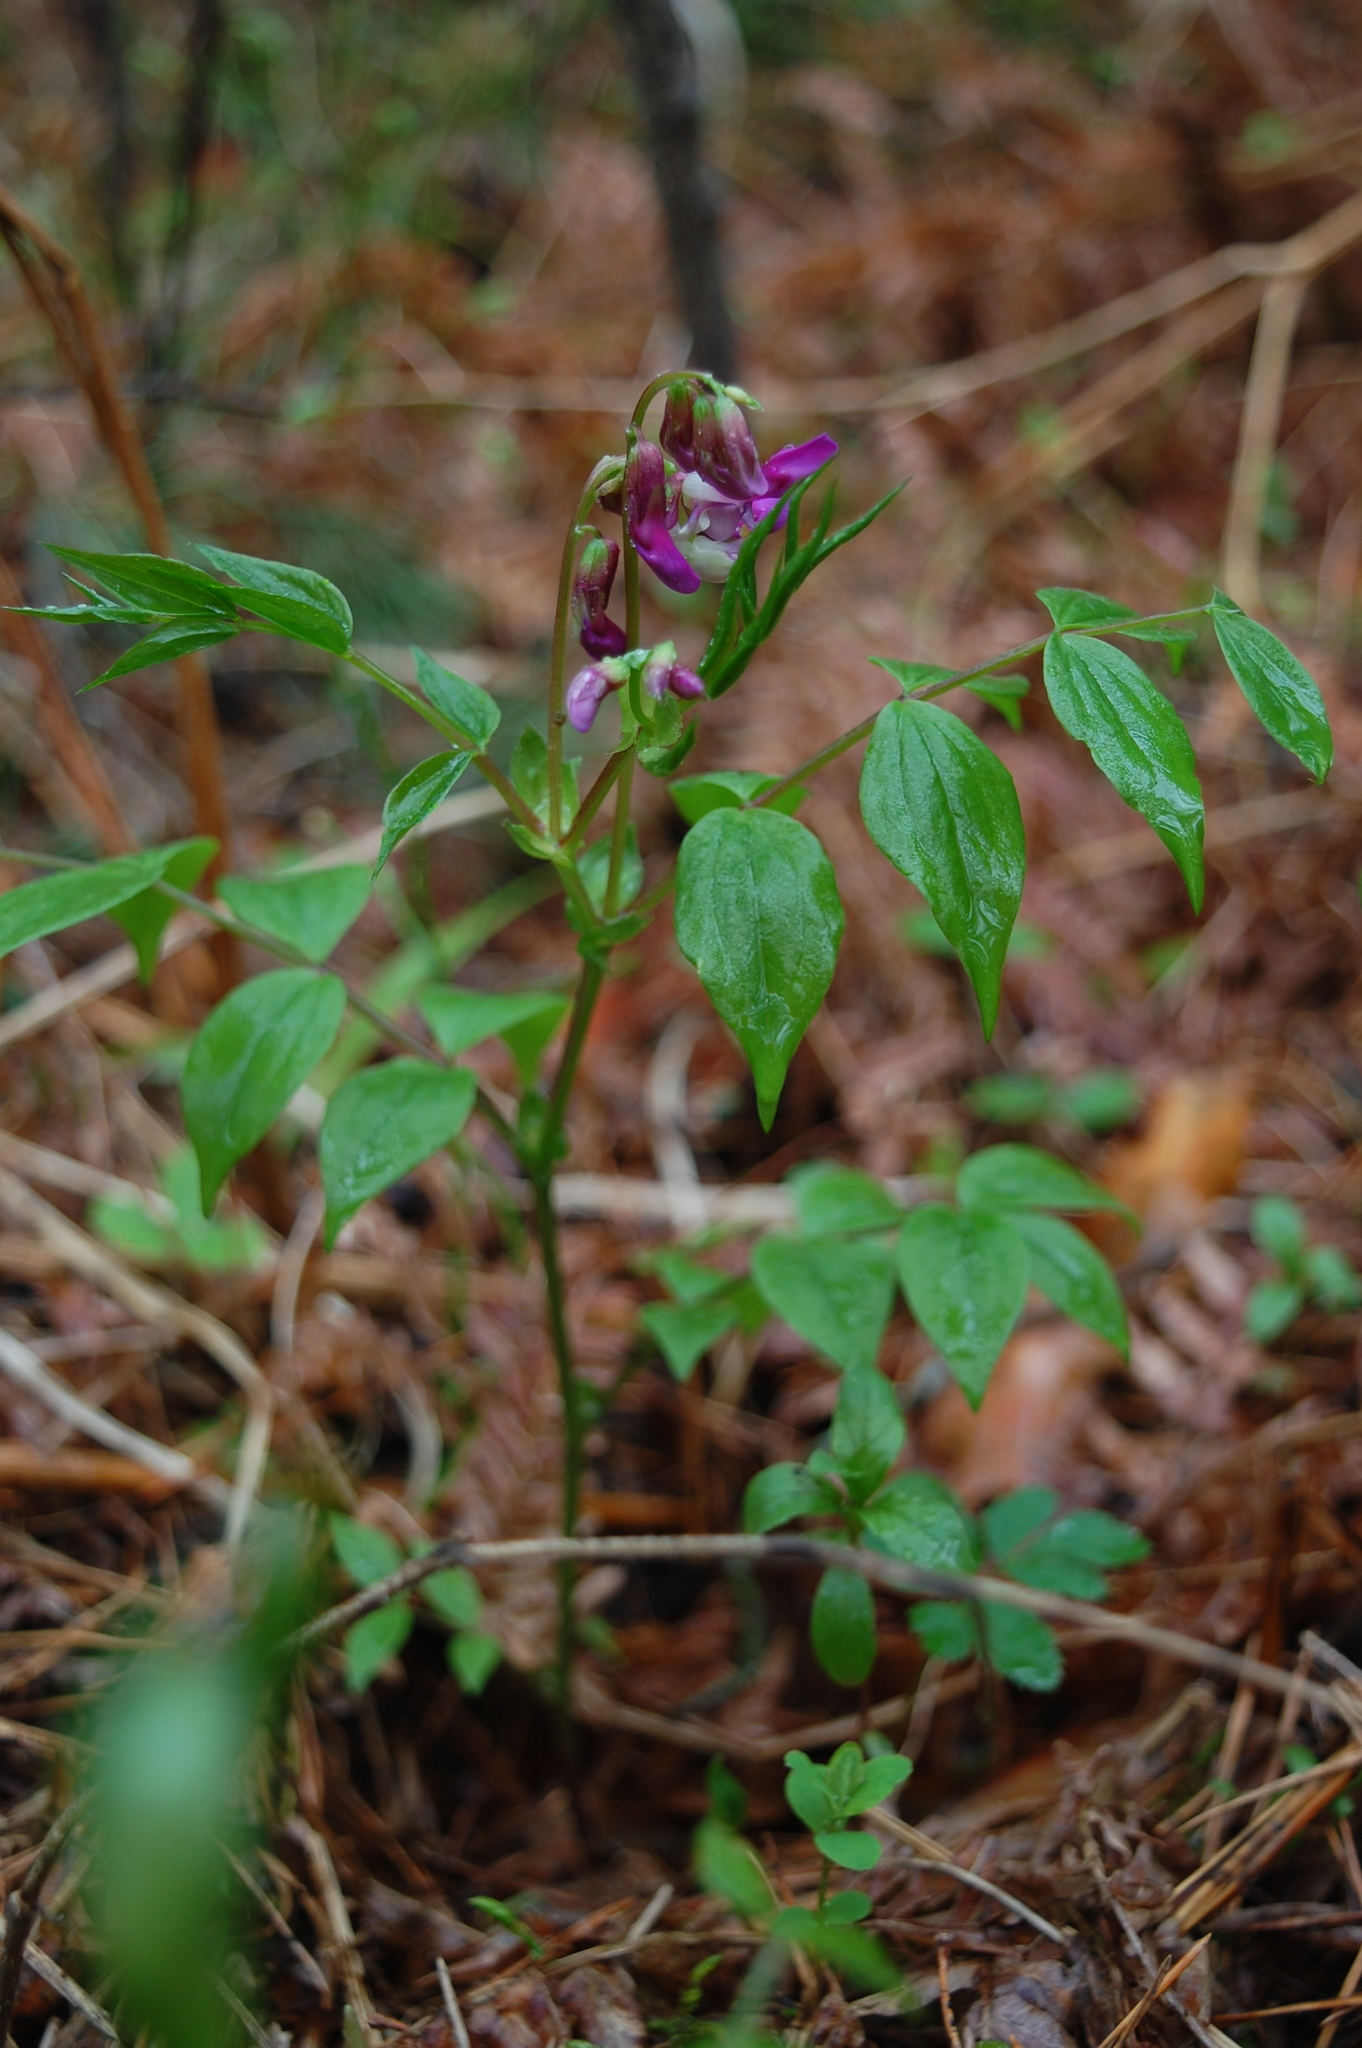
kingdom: Plantae
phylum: Tracheophyta
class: Magnoliopsida
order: Fabales
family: Fabaceae
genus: Lathyrus
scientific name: Lathyrus vernus
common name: Spring pea
